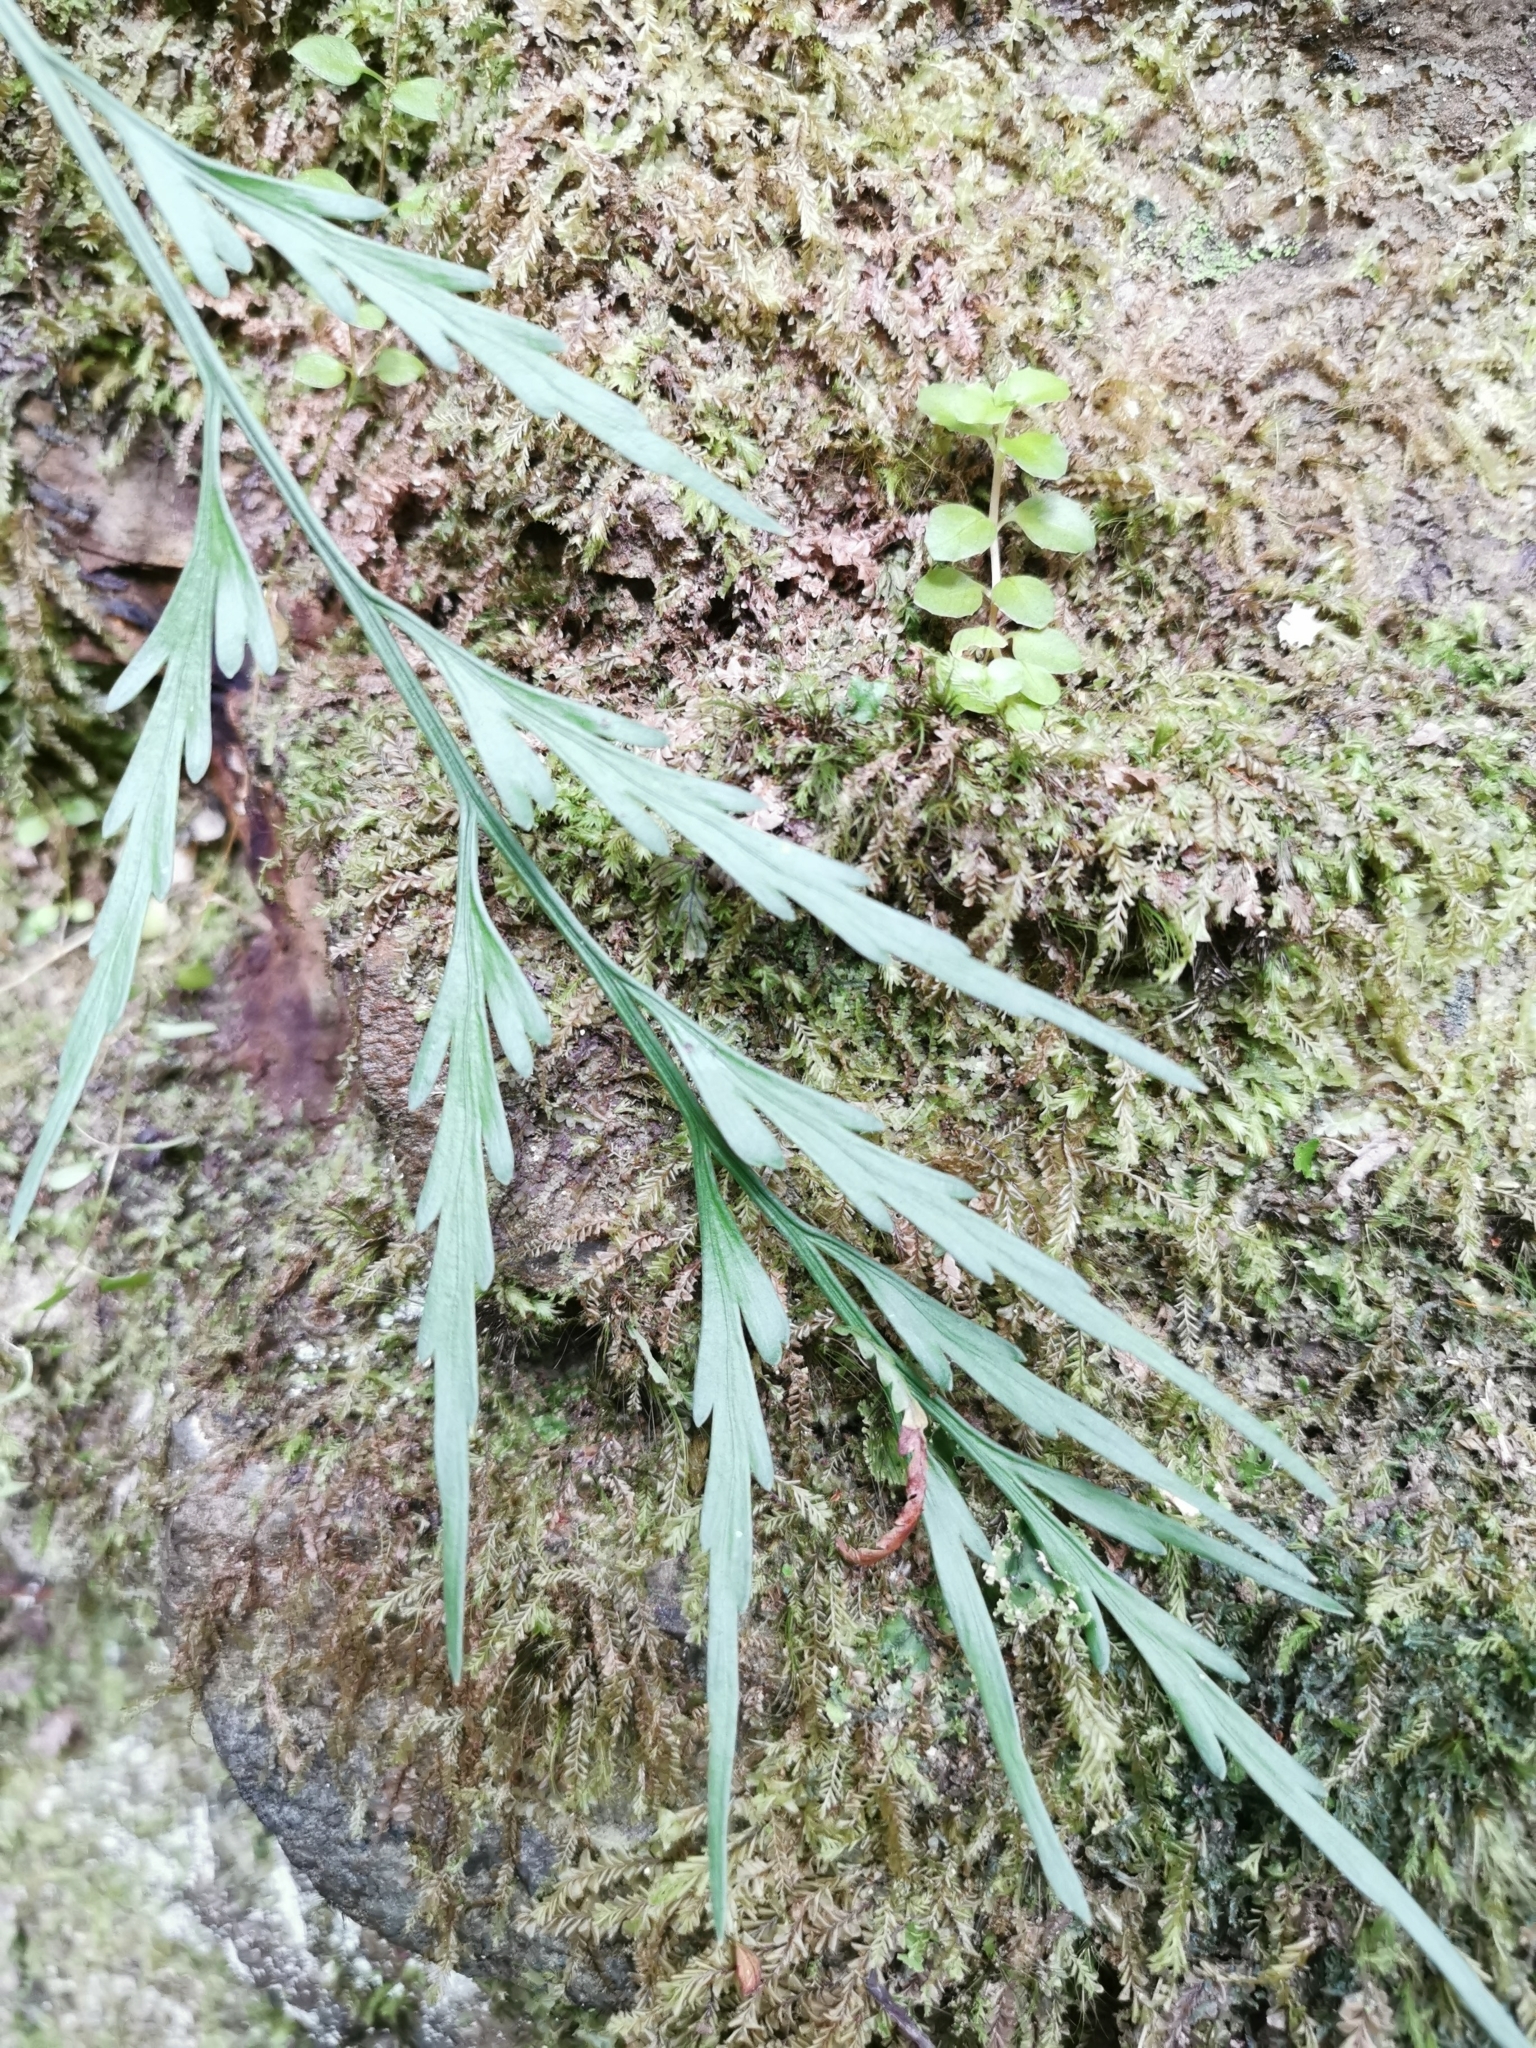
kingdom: Plantae
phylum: Tracheophyta
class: Polypodiopsida
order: Polypodiales
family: Aspleniaceae
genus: Asplenium
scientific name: Asplenium flaccidum
